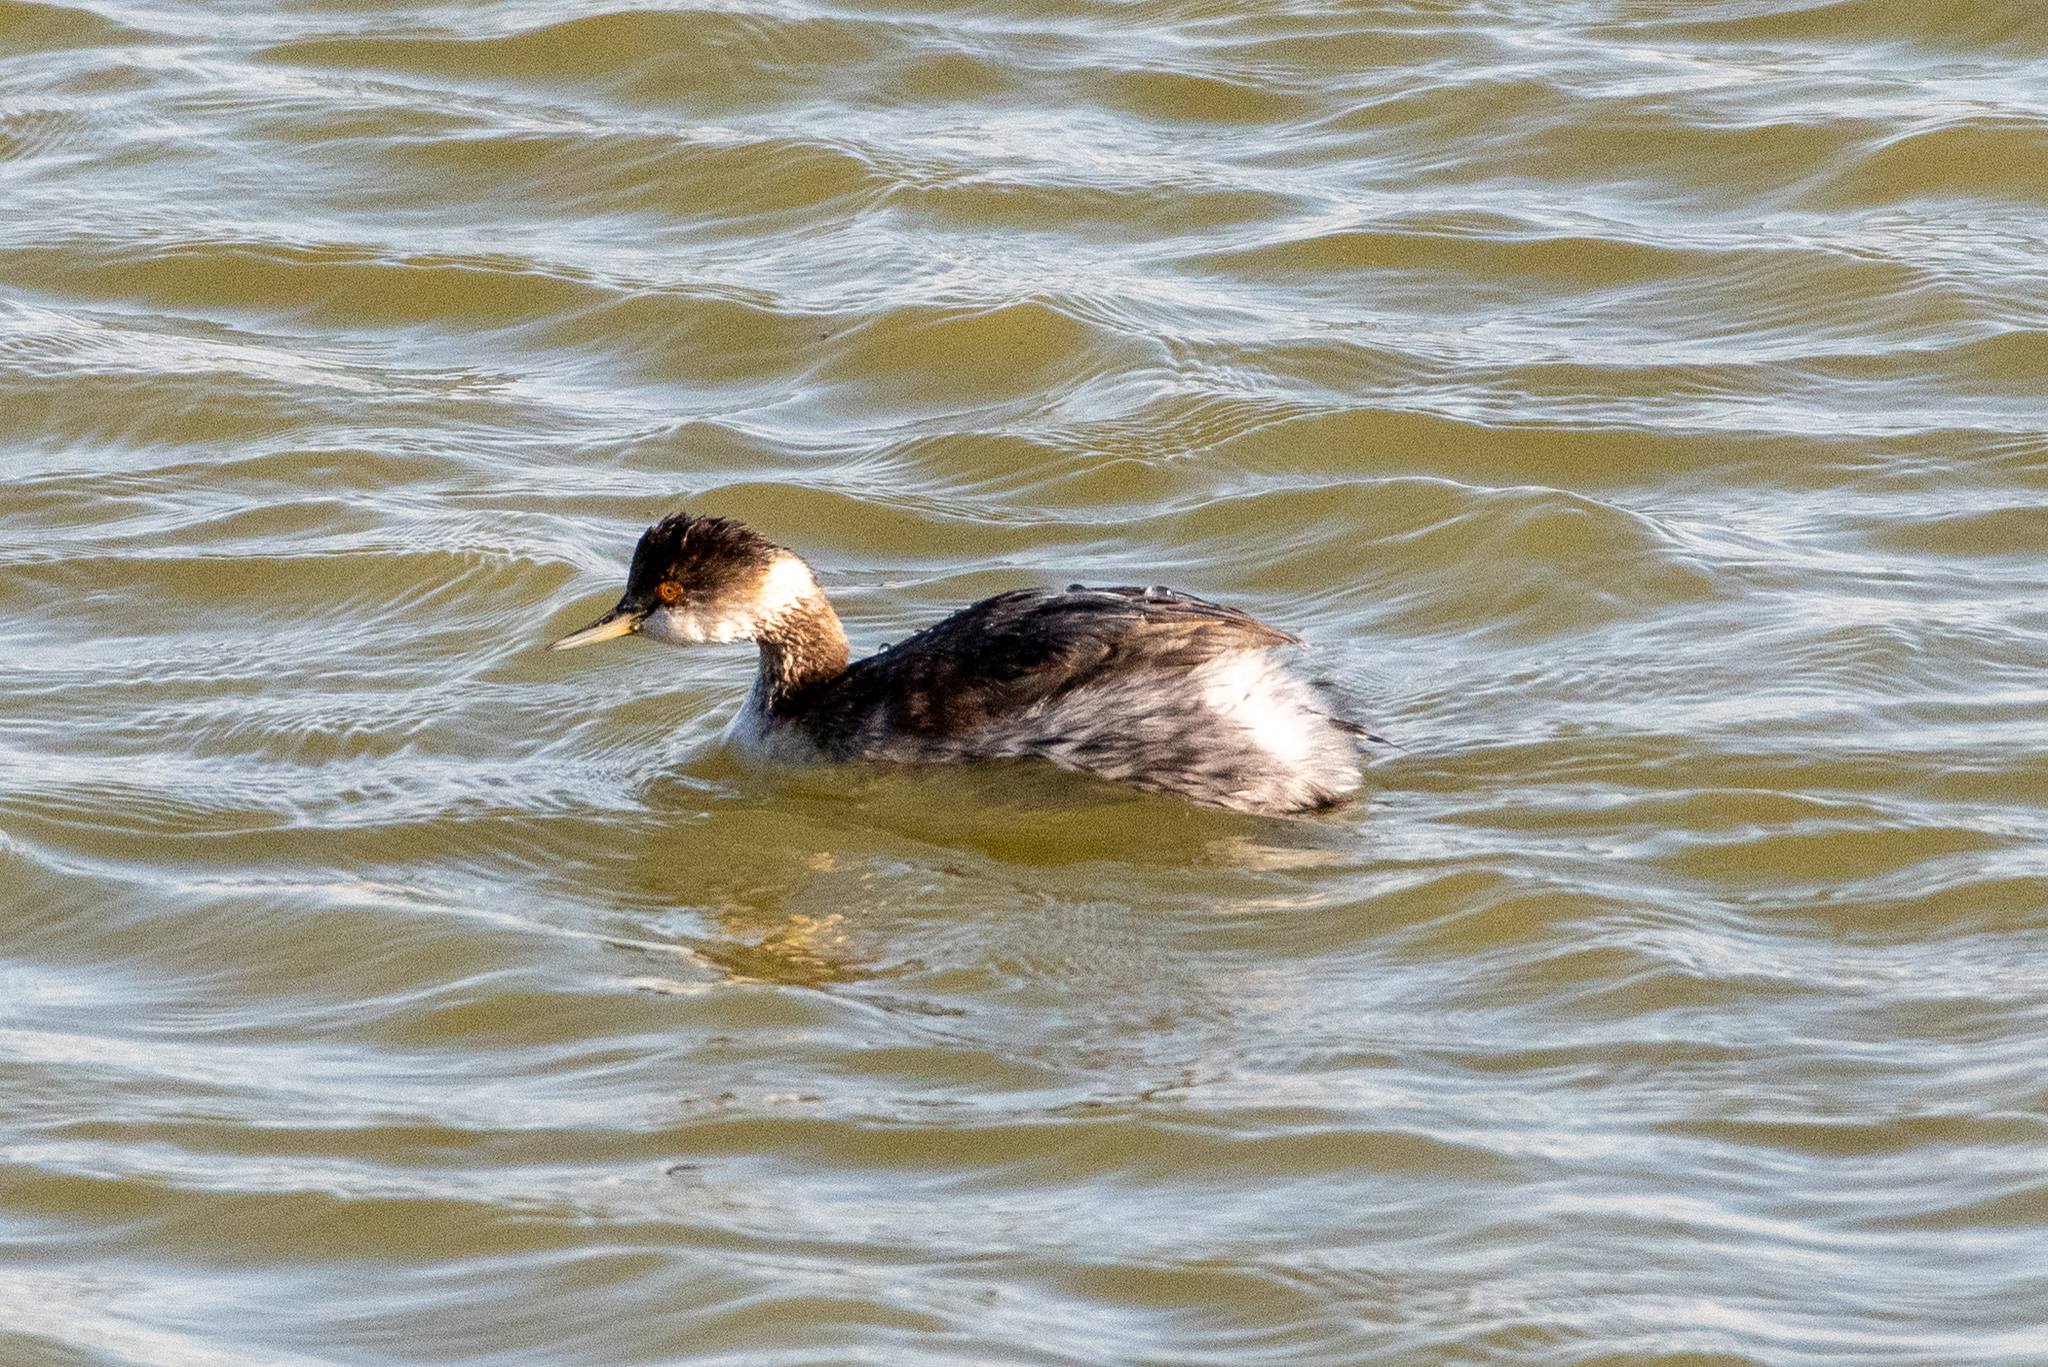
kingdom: Animalia
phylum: Chordata
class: Aves
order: Podicipediformes
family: Podicipedidae
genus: Podiceps
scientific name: Podiceps nigricollis
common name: Black-necked grebe
